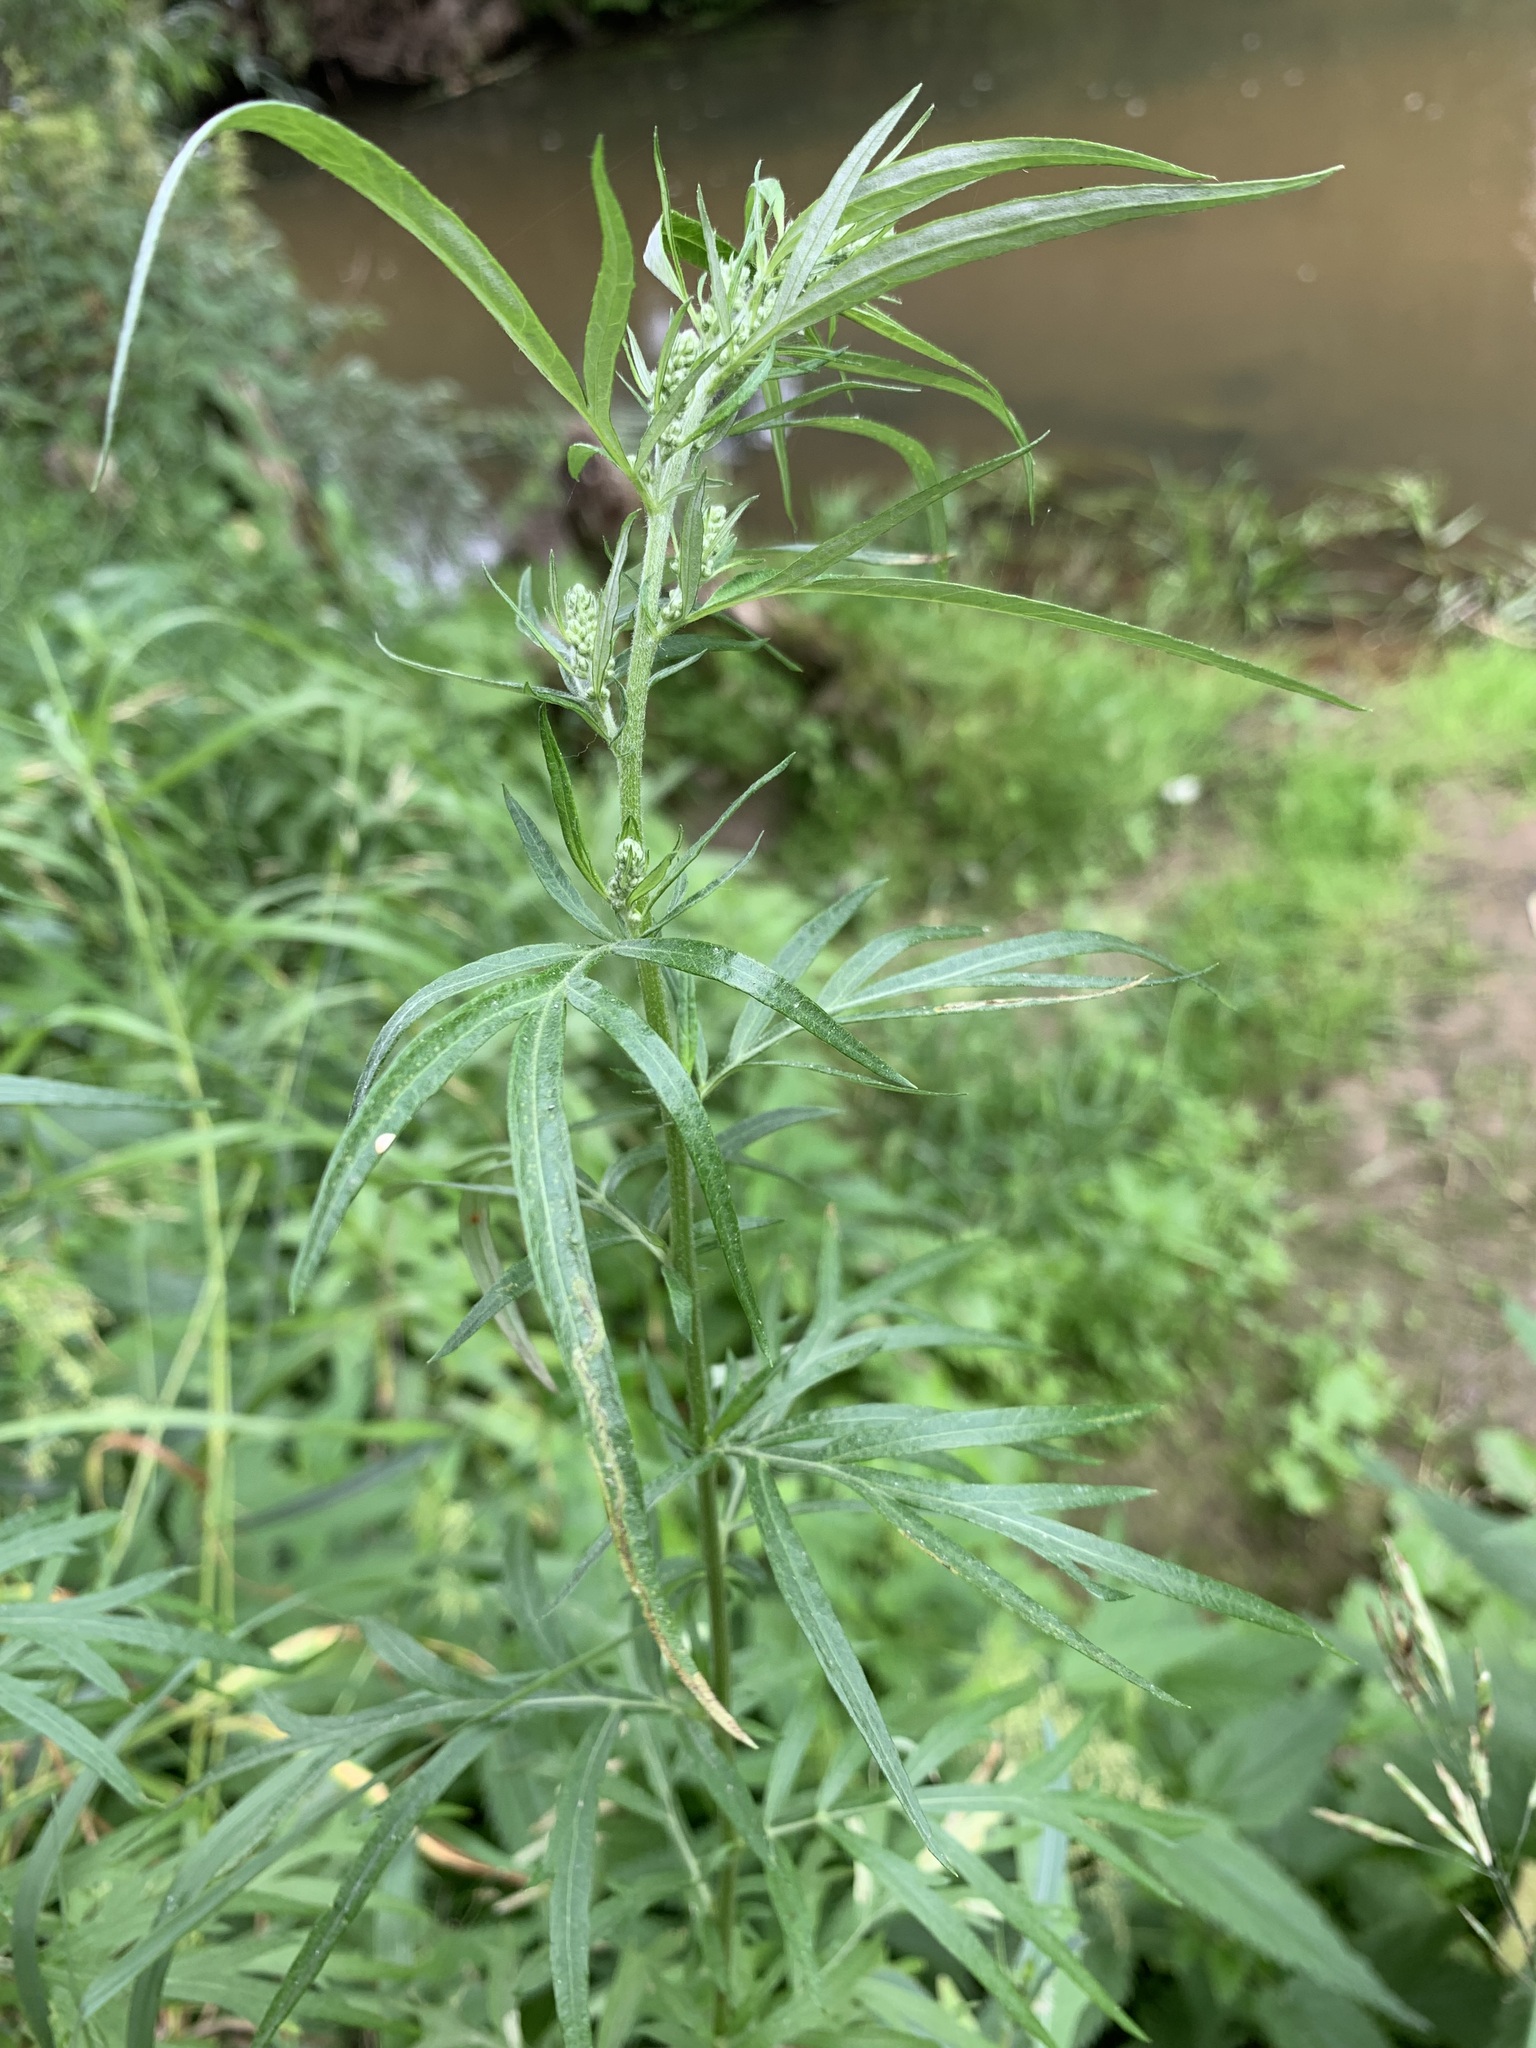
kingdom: Plantae
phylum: Tracheophyta
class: Magnoliopsida
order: Asterales
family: Asteraceae
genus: Artemisia
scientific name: Artemisia vulgaris
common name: Mugwort
